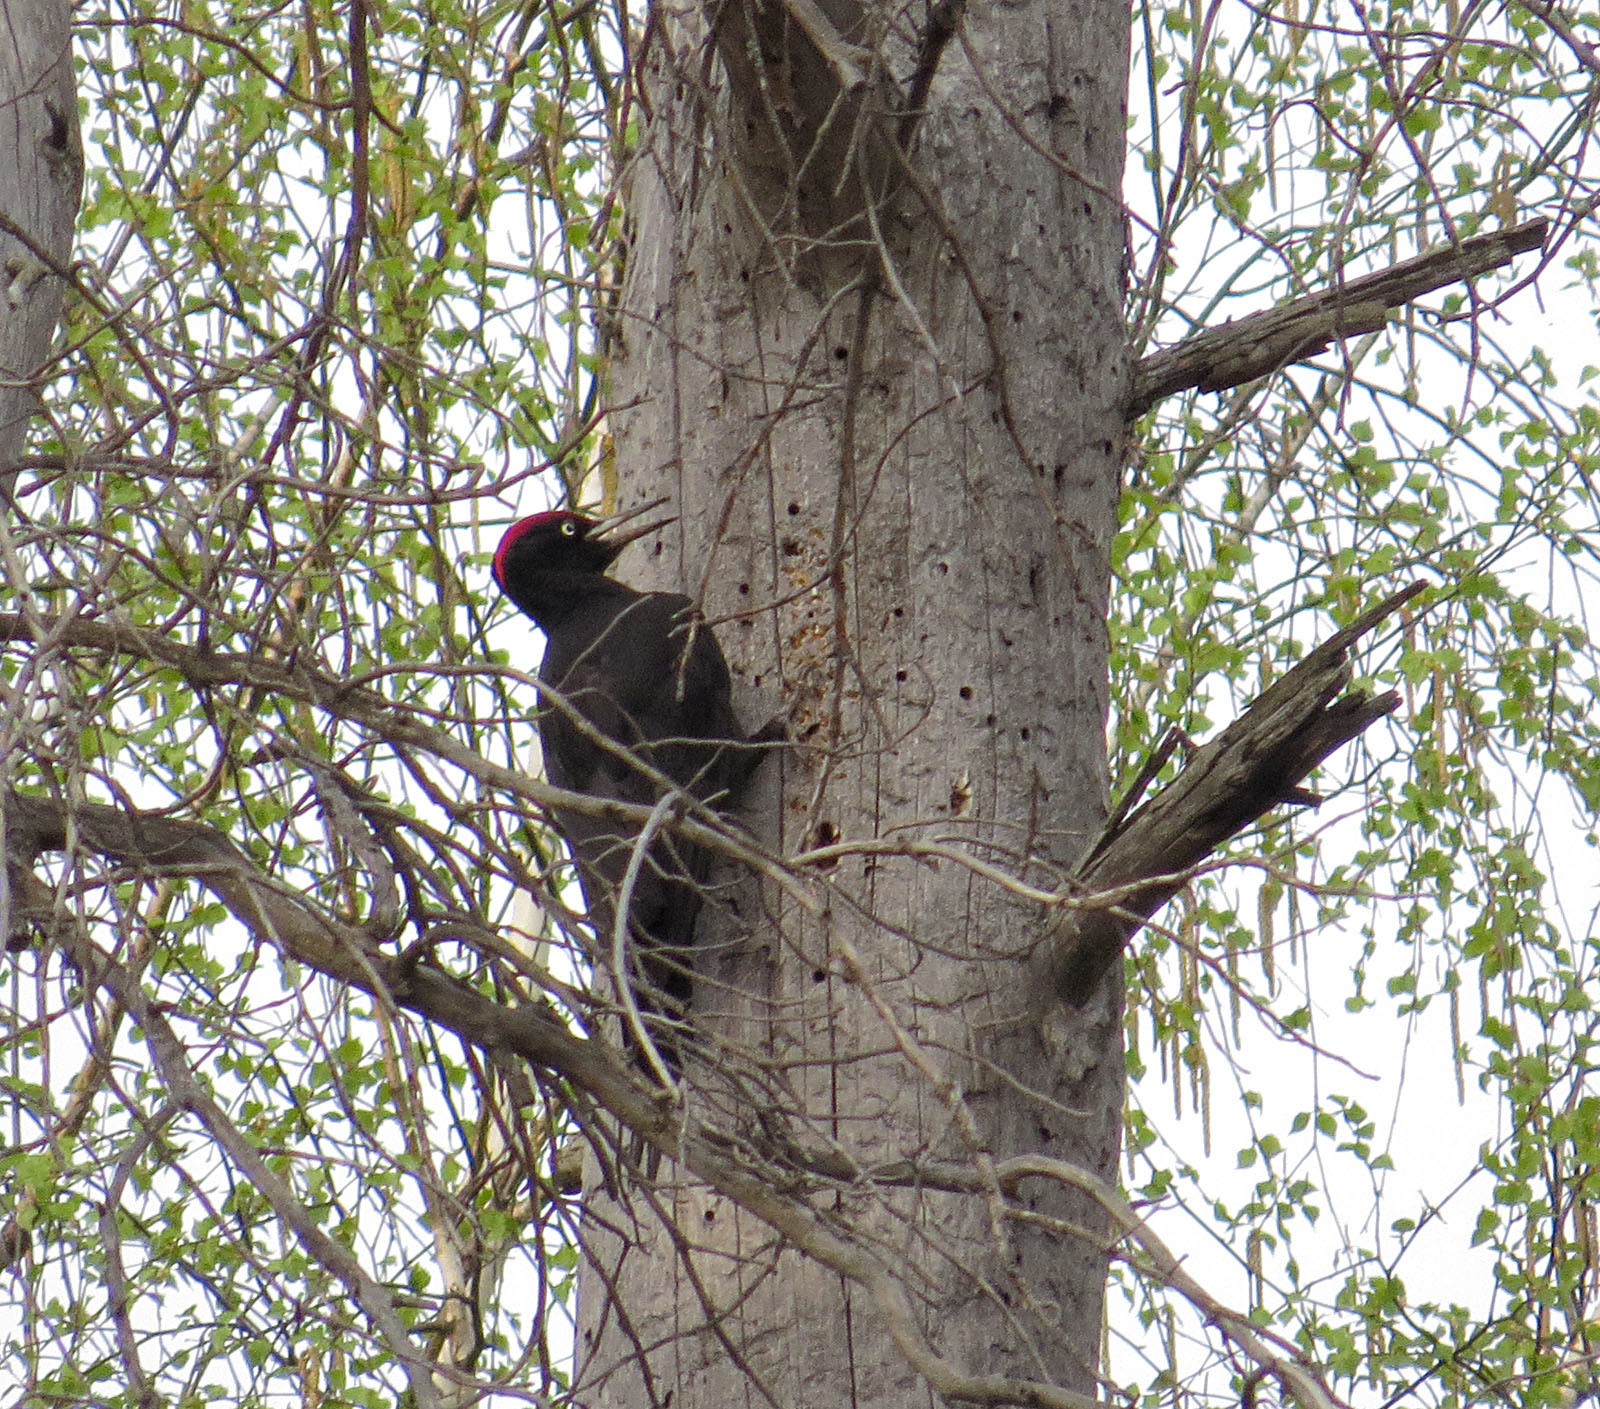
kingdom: Animalia
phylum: Chordata
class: Aves
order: Piciformes
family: Picidae
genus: Dryocopus
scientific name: Dryocopus martius
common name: Black woodpecker
